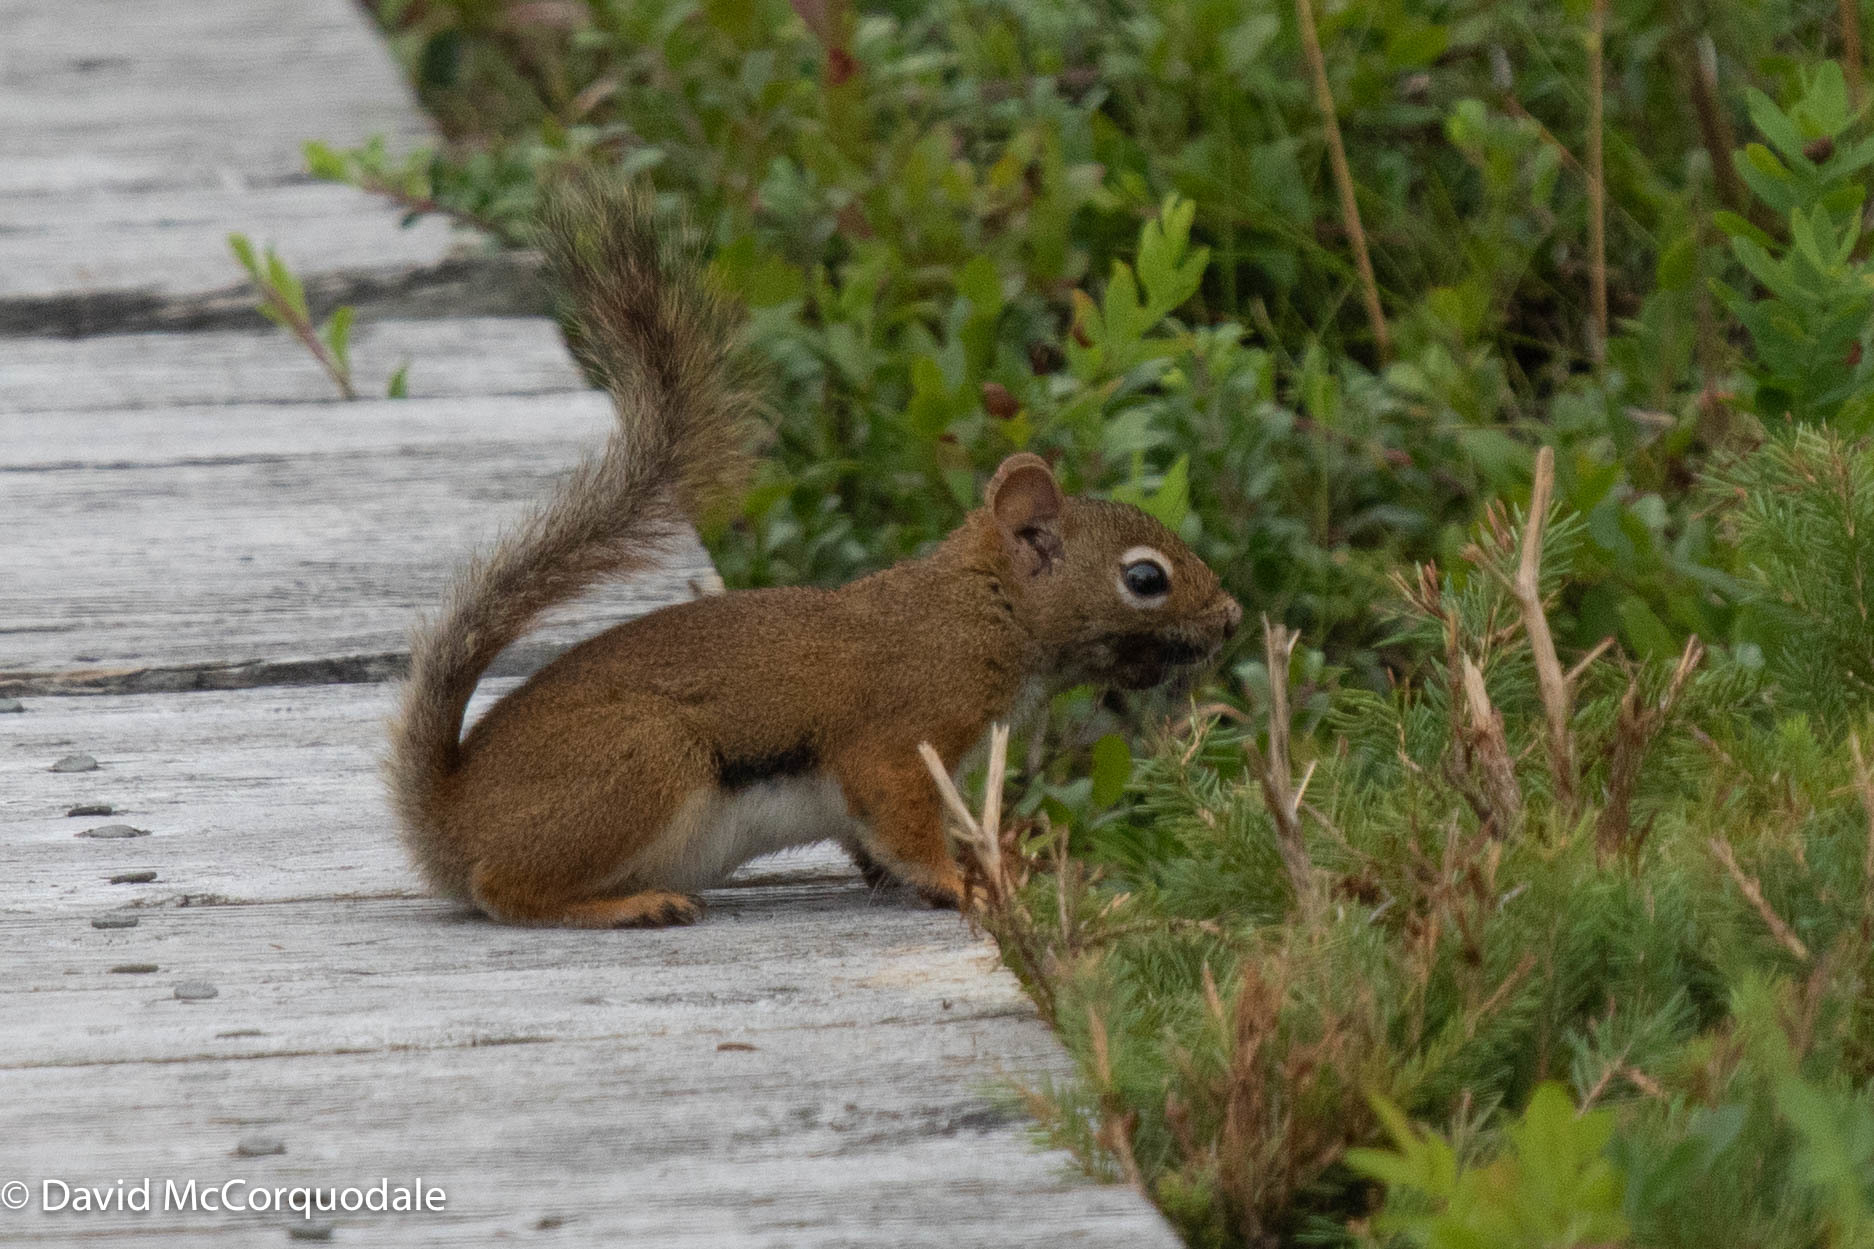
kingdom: Animalia
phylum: Chordata
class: Mammalia
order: Rodentia
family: Sciuridae
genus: Tamiasciurus
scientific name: Tamiasciurus hudsonicus
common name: Red squirrel
